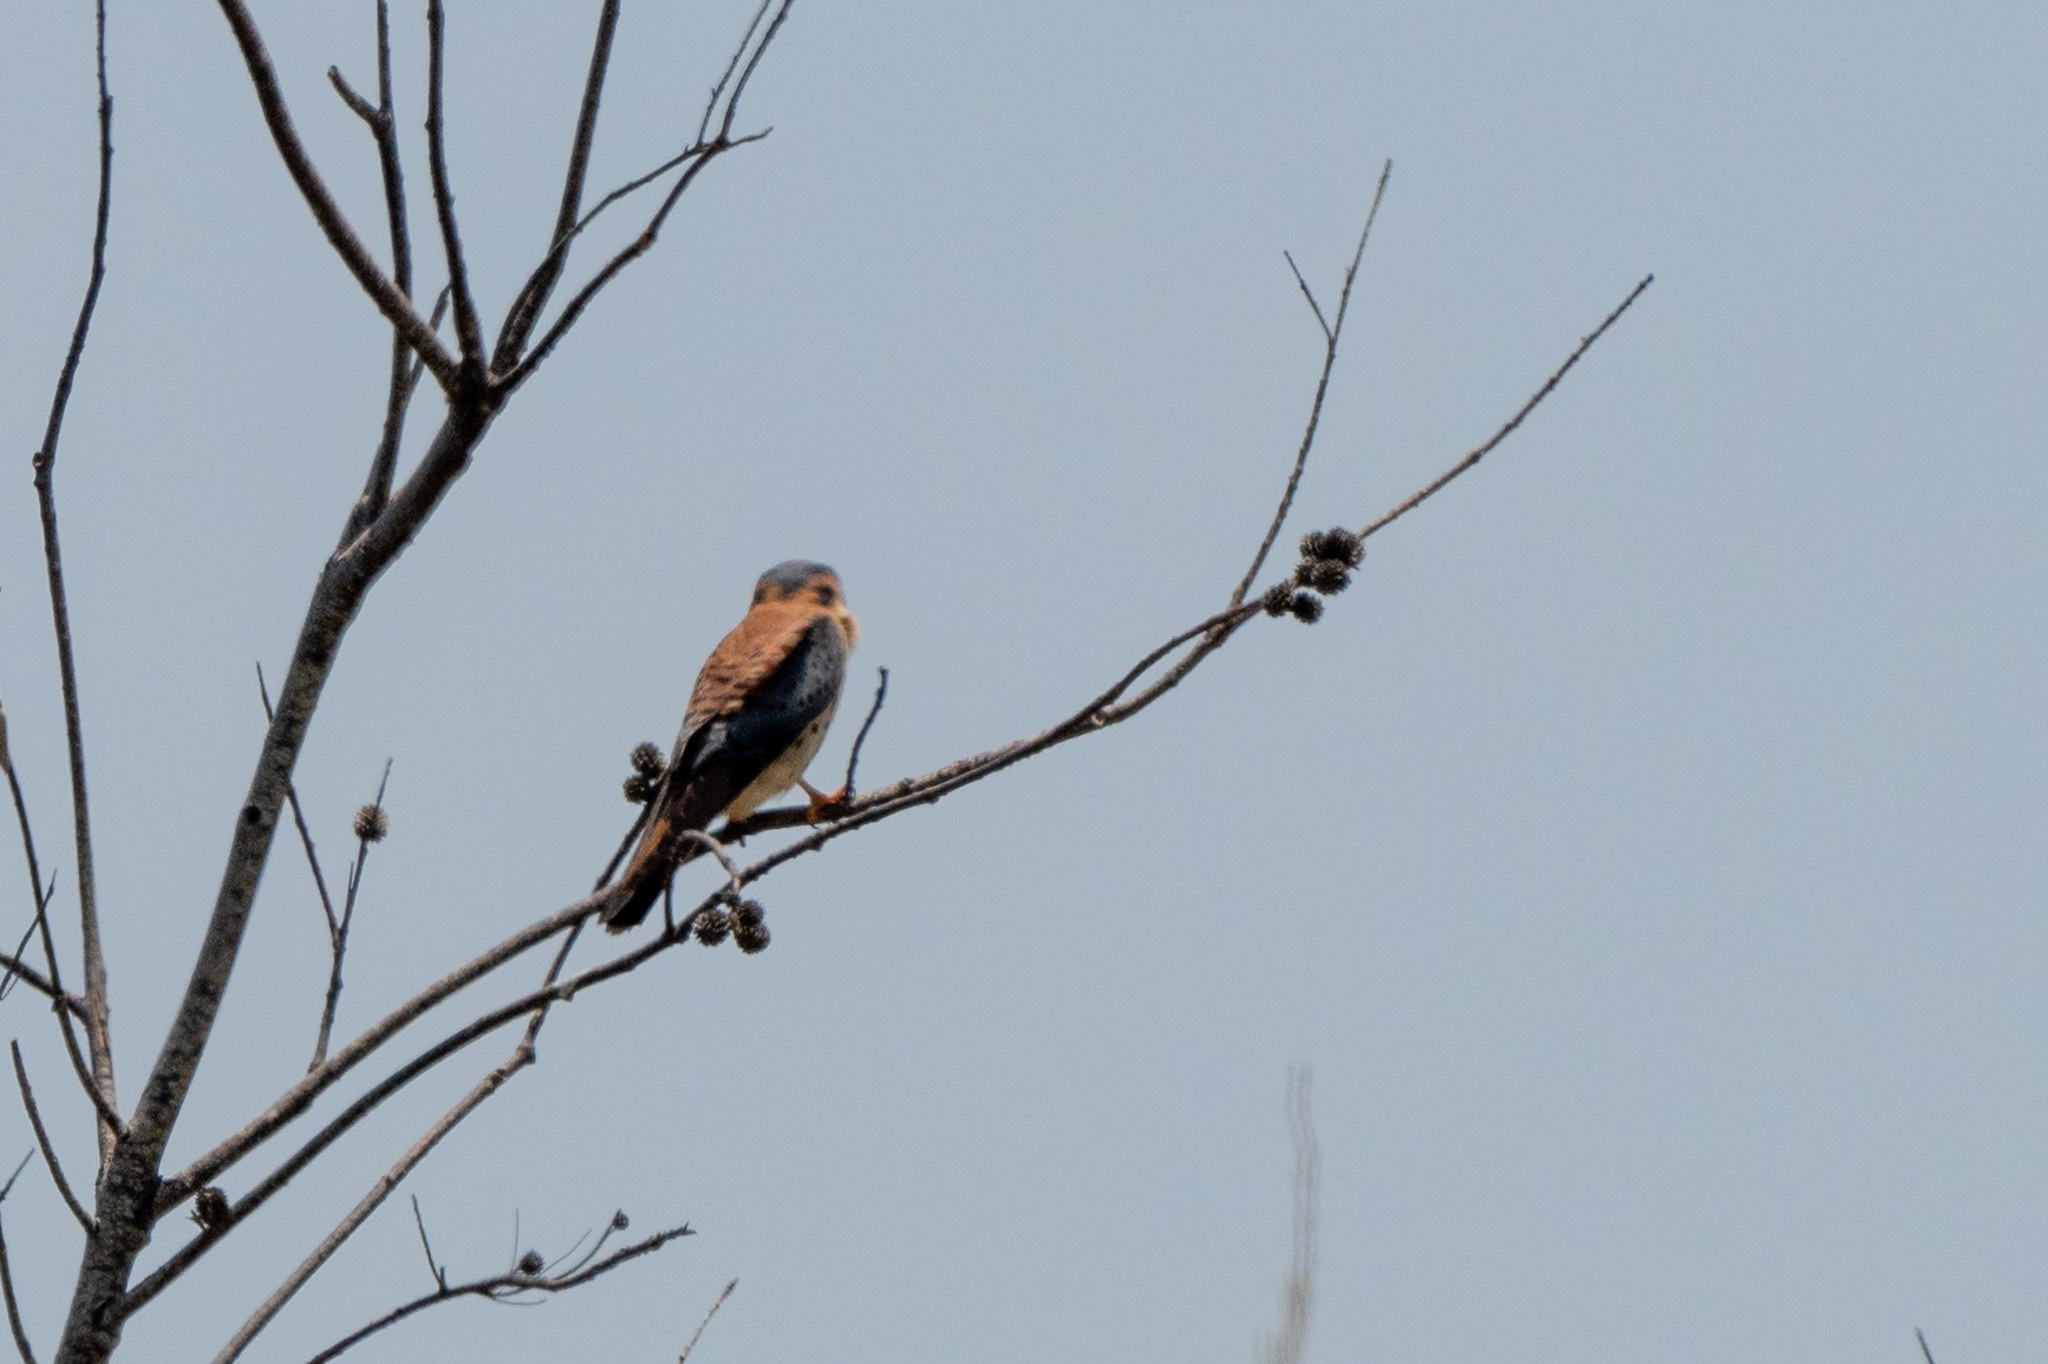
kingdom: Animalia
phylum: Chordata
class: Aves
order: Falconiformes
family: Falconidae
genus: Falco
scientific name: Falco sparverius
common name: American kestrel
